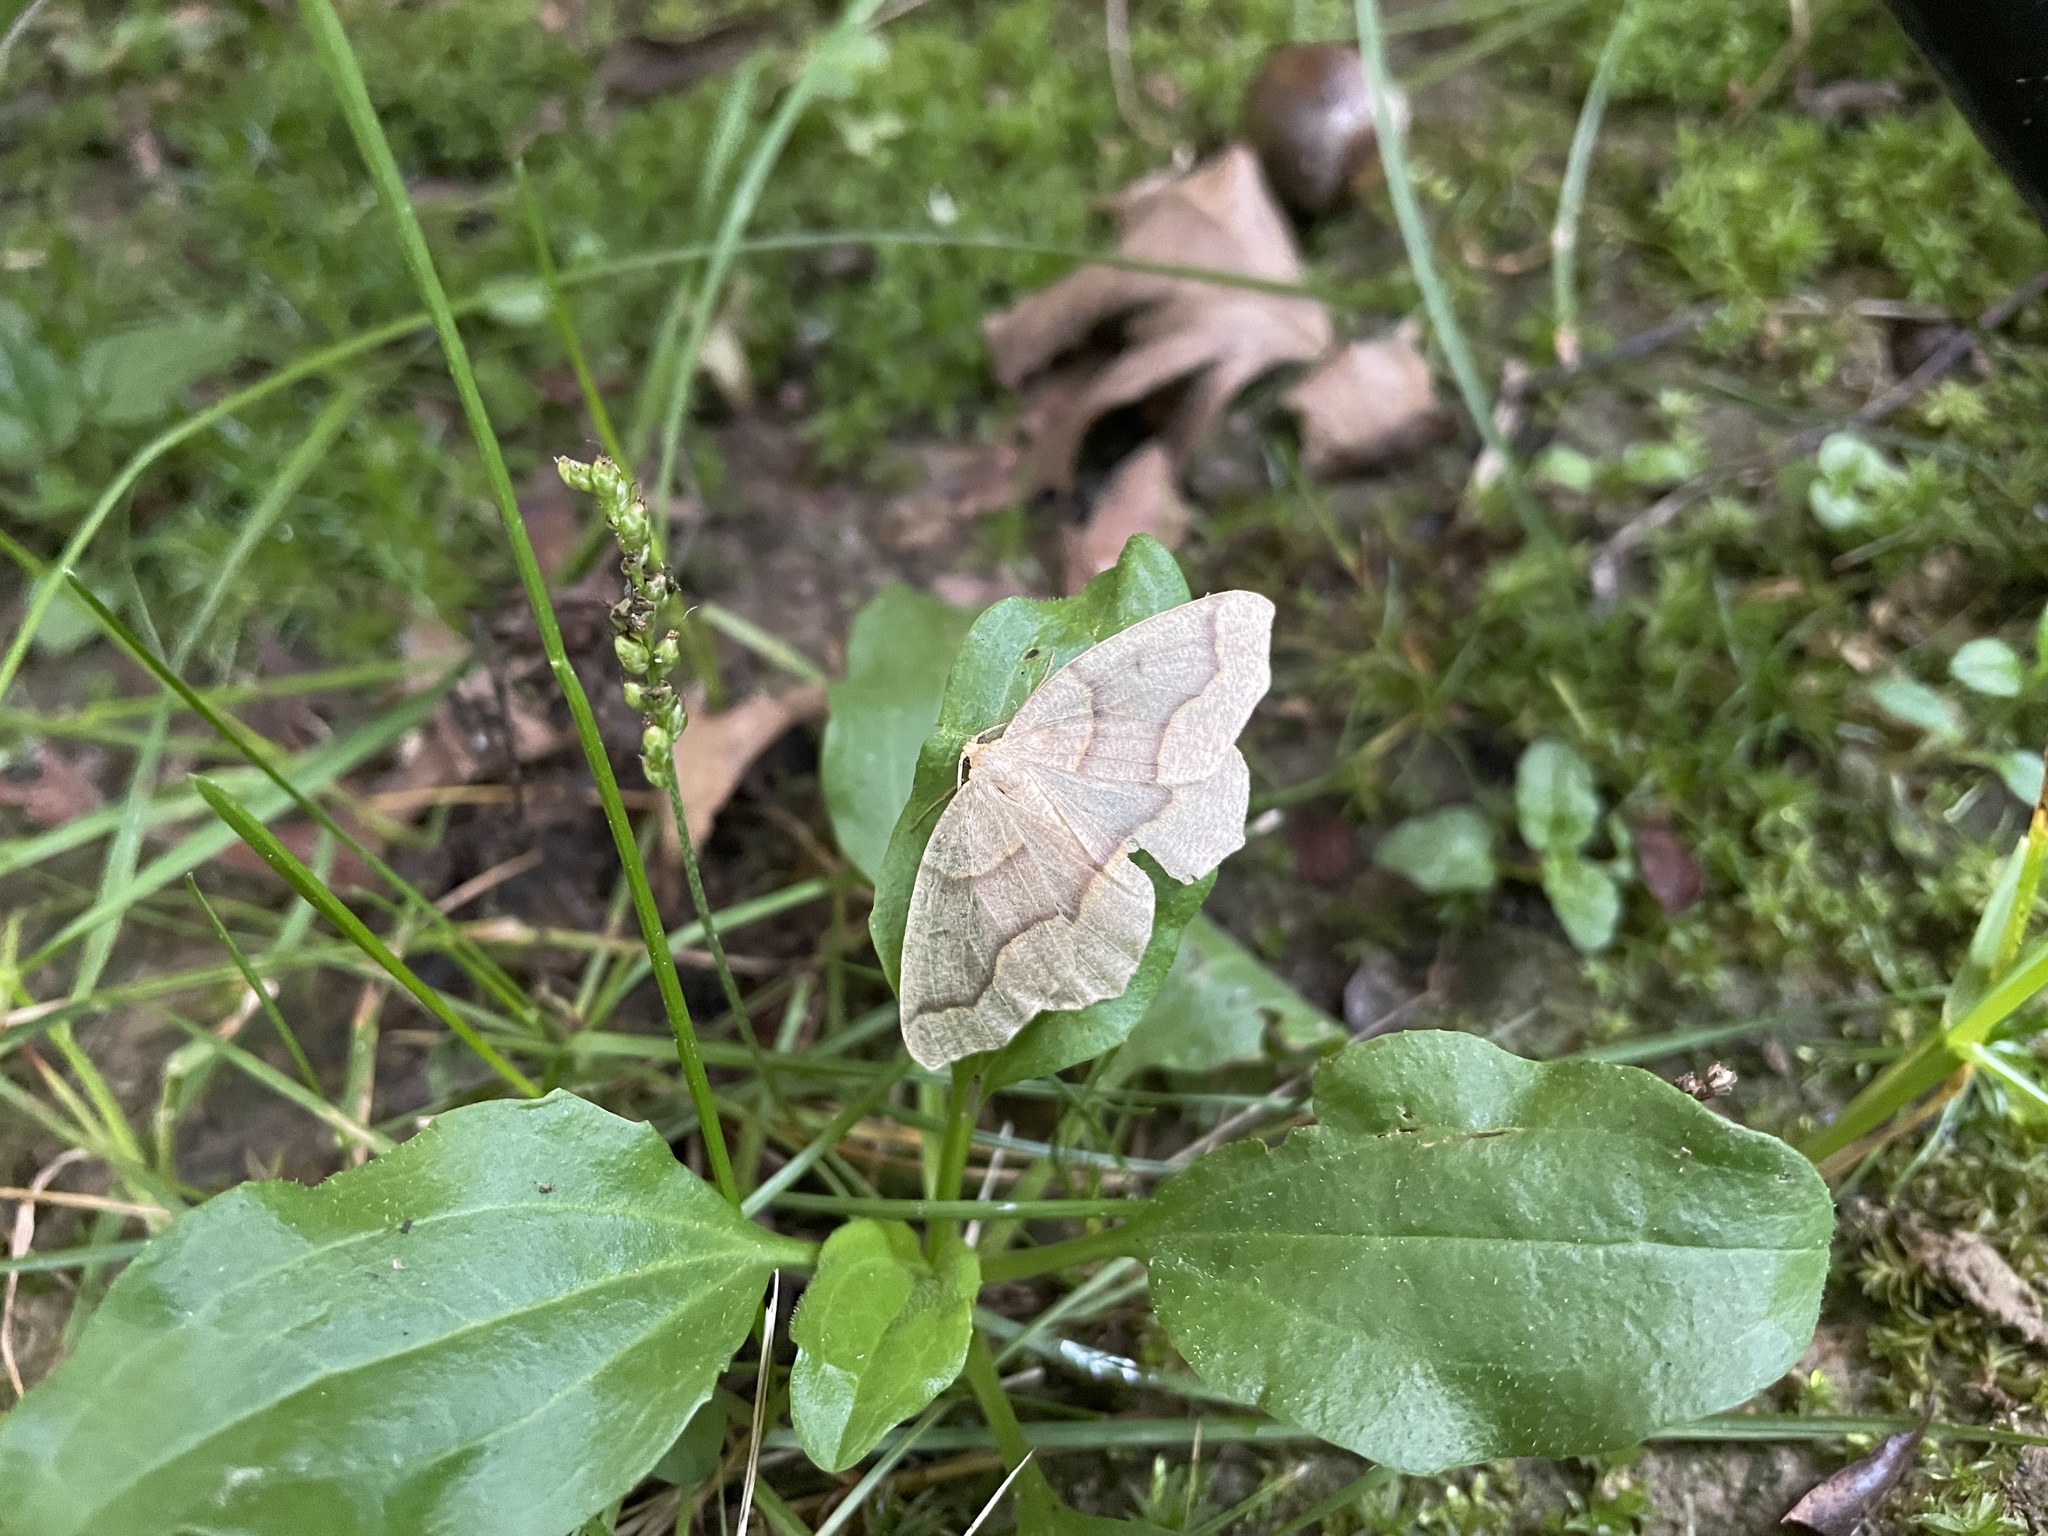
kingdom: Animalia
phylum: Arthropoda
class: Insecta
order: Lepidoptera
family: Geometridae
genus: Lambdina
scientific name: Lambdina fiscellaria
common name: Hemlock looper
